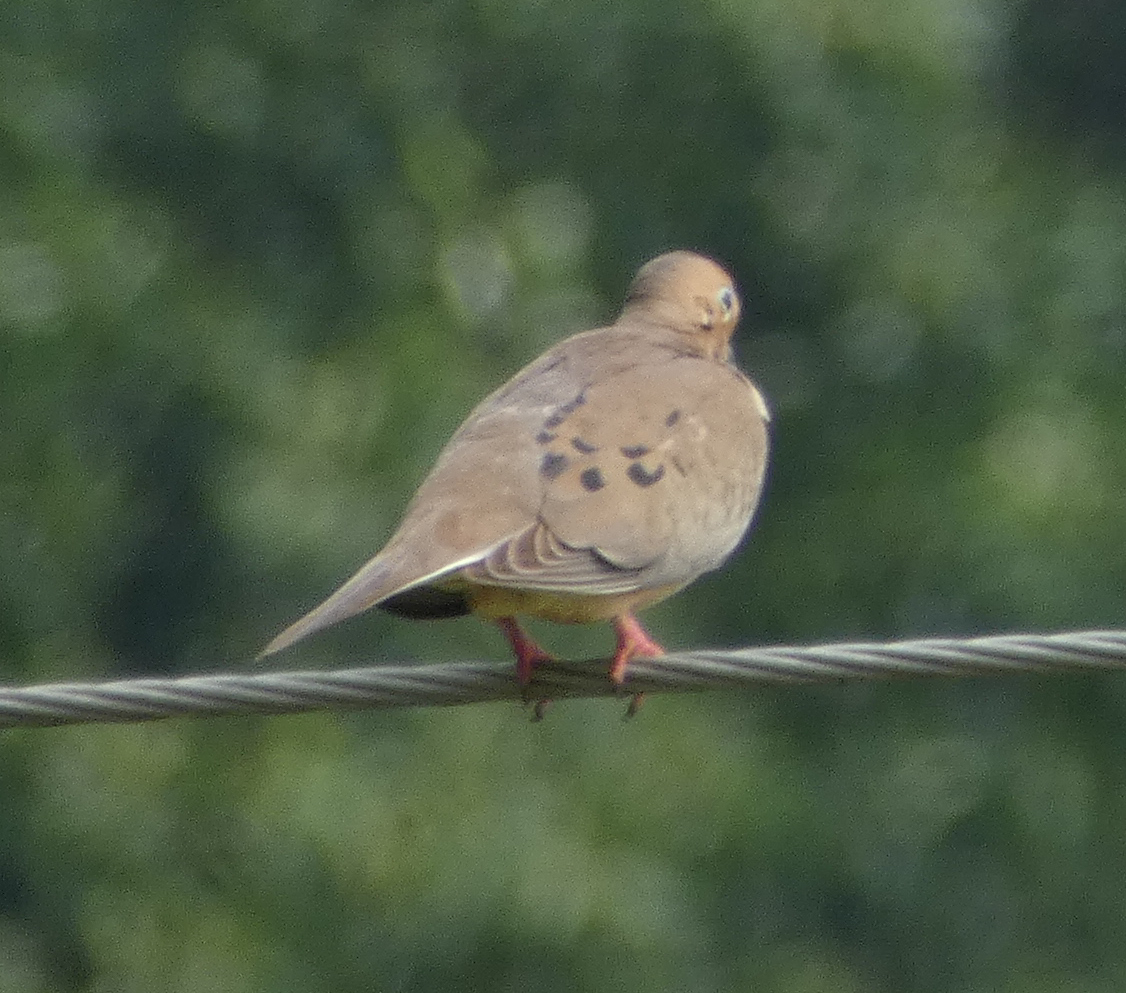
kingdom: Animalia
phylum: Chordata
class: Aves
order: Columbiformes
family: Columbidae
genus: Zenaida
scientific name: Zenaida macroura
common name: Mourning dove
